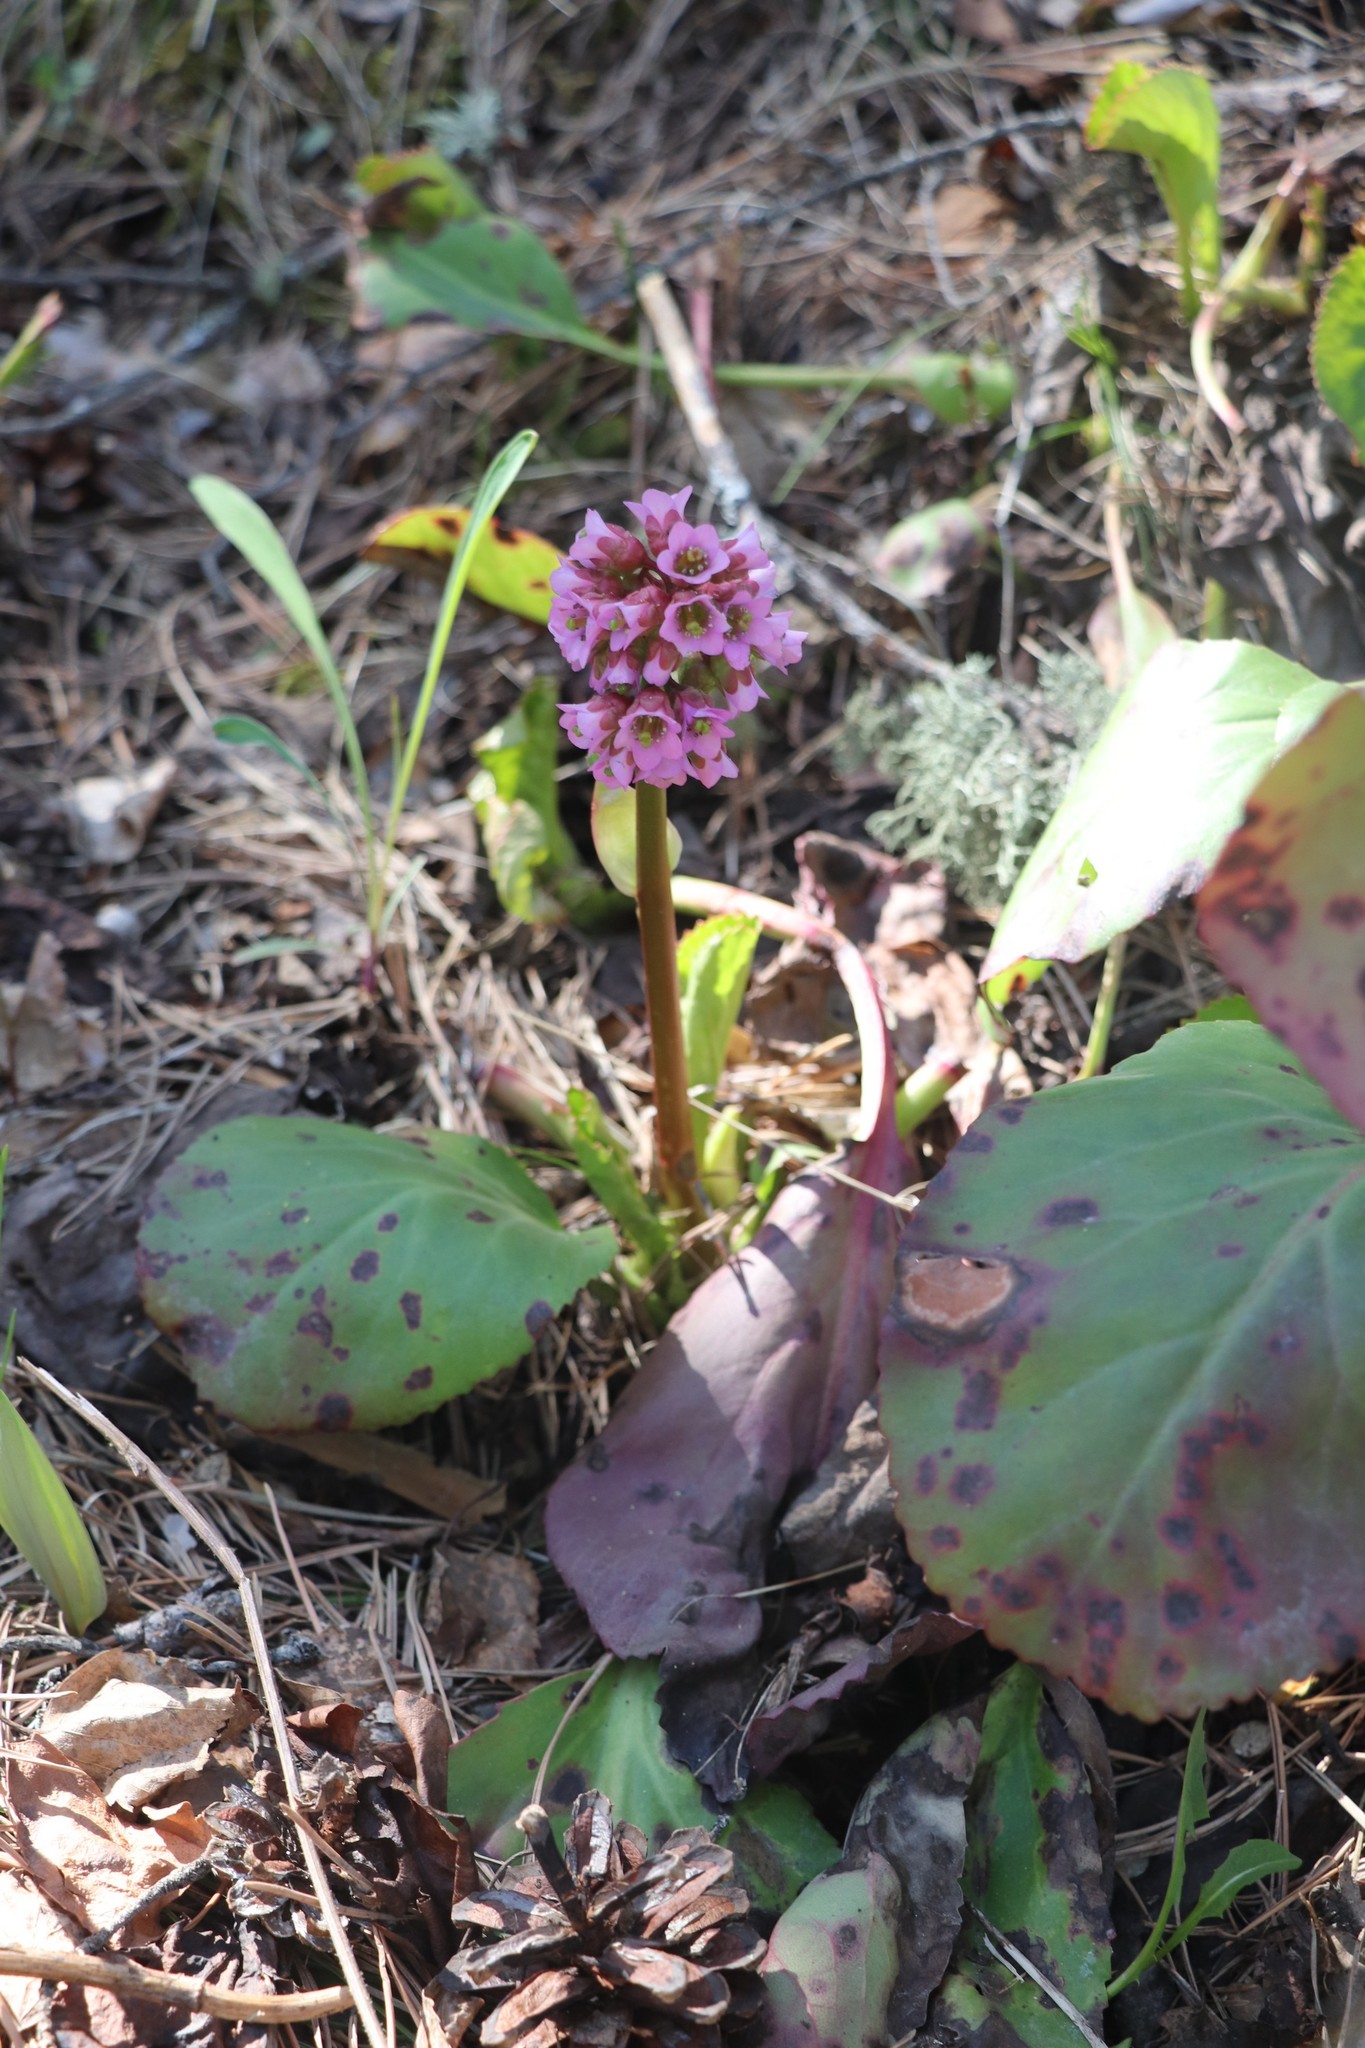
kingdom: Plantae
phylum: Tracheophyta
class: Magnoliopsida
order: Saxifragales
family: Saxifragaceae
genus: Bergenia
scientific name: Bergenia crassifolia
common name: Elephant-ears
